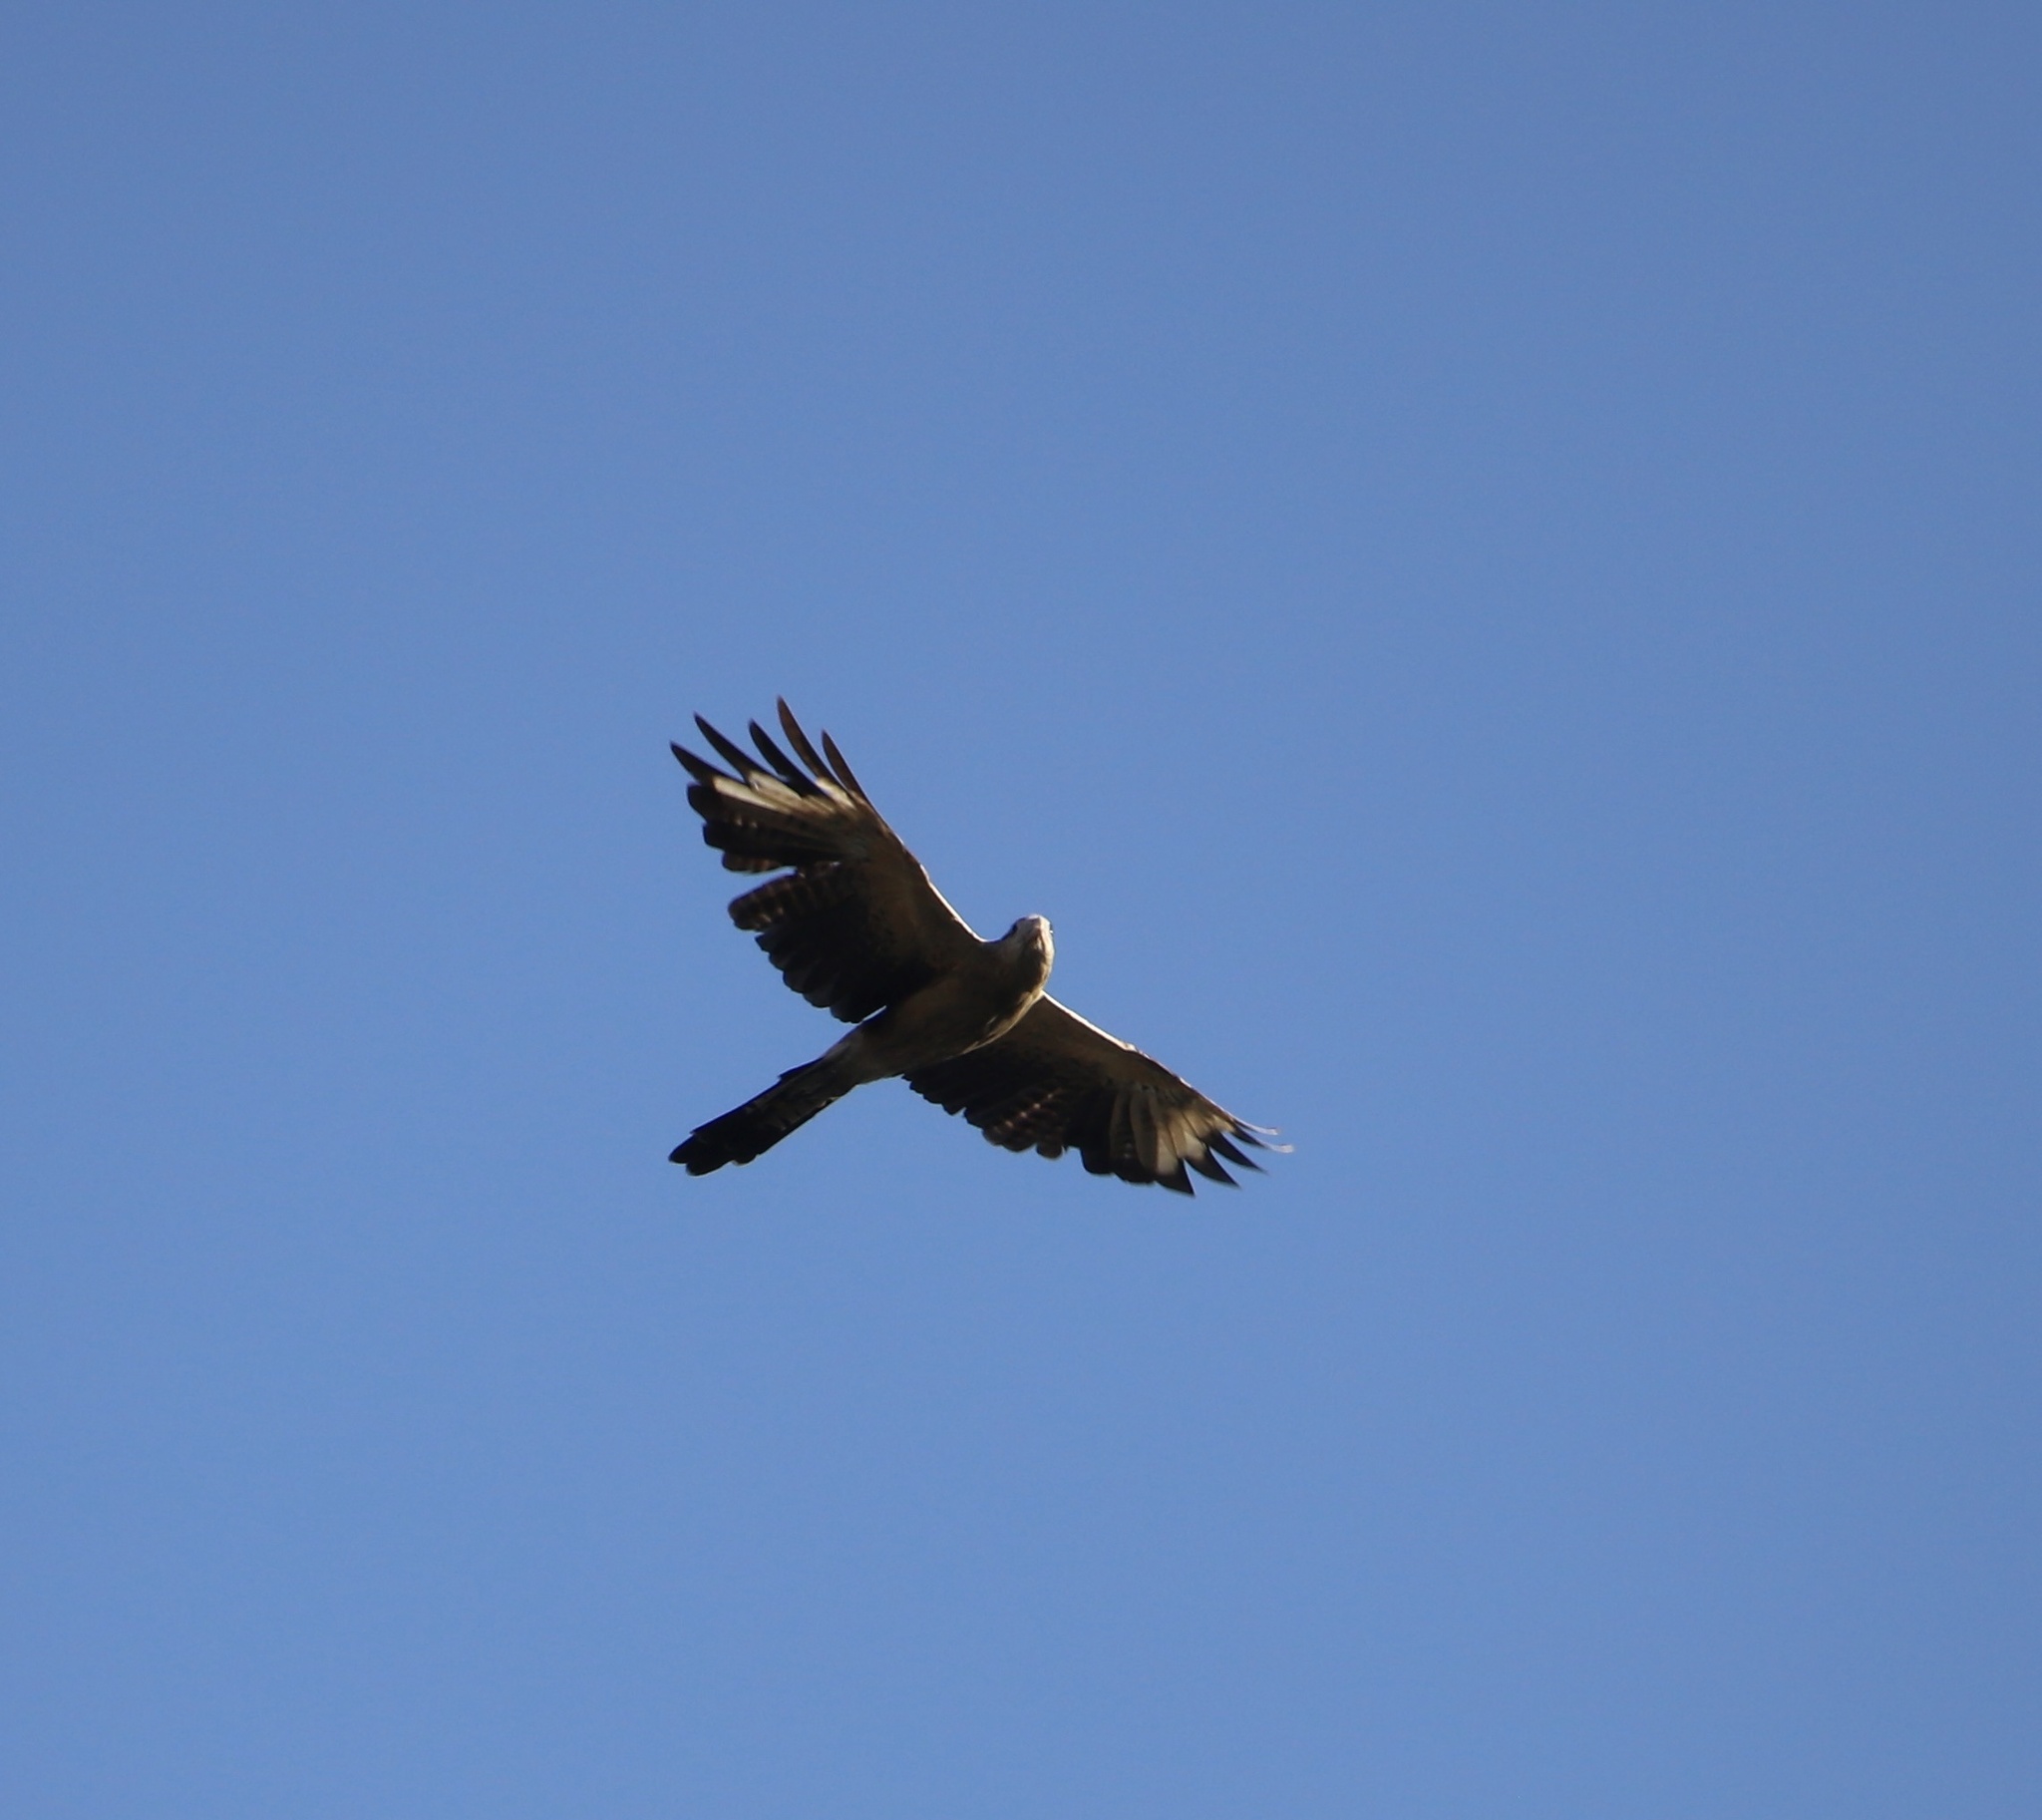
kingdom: Animalia
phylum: Chordata
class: Aves
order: Falconiformes
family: Falconidae
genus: Daptrius
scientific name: Daptrius
